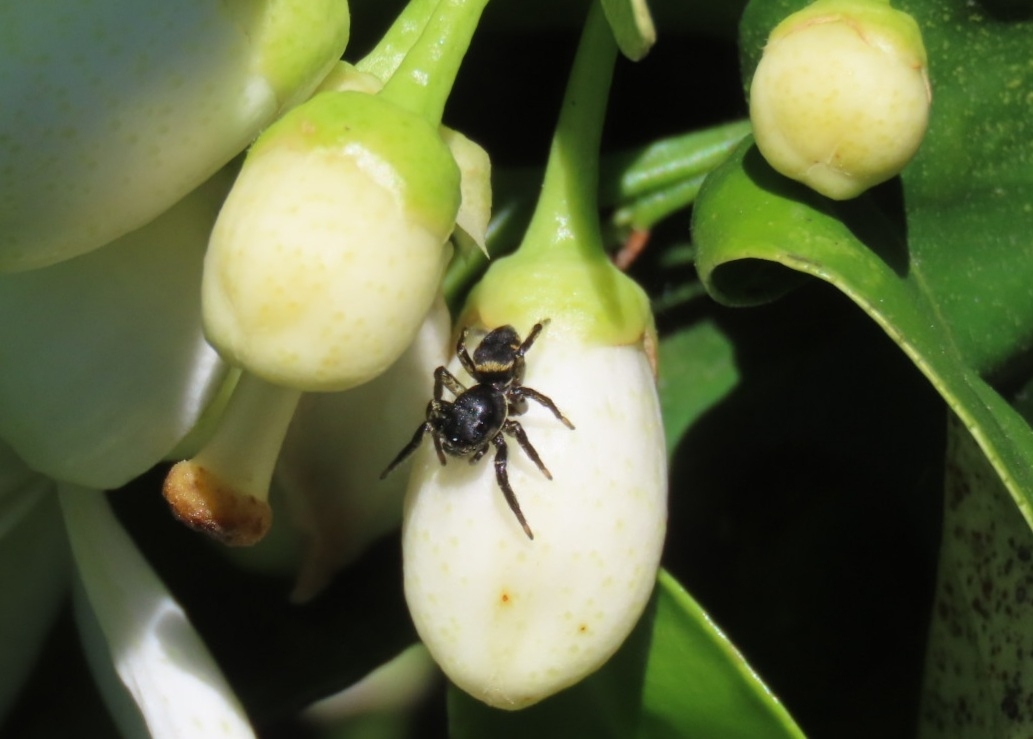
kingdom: Animalia
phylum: Arthropoda
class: Arachnida
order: Araneae
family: Salticidae
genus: Phiale
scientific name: Phiale roburifoliata
